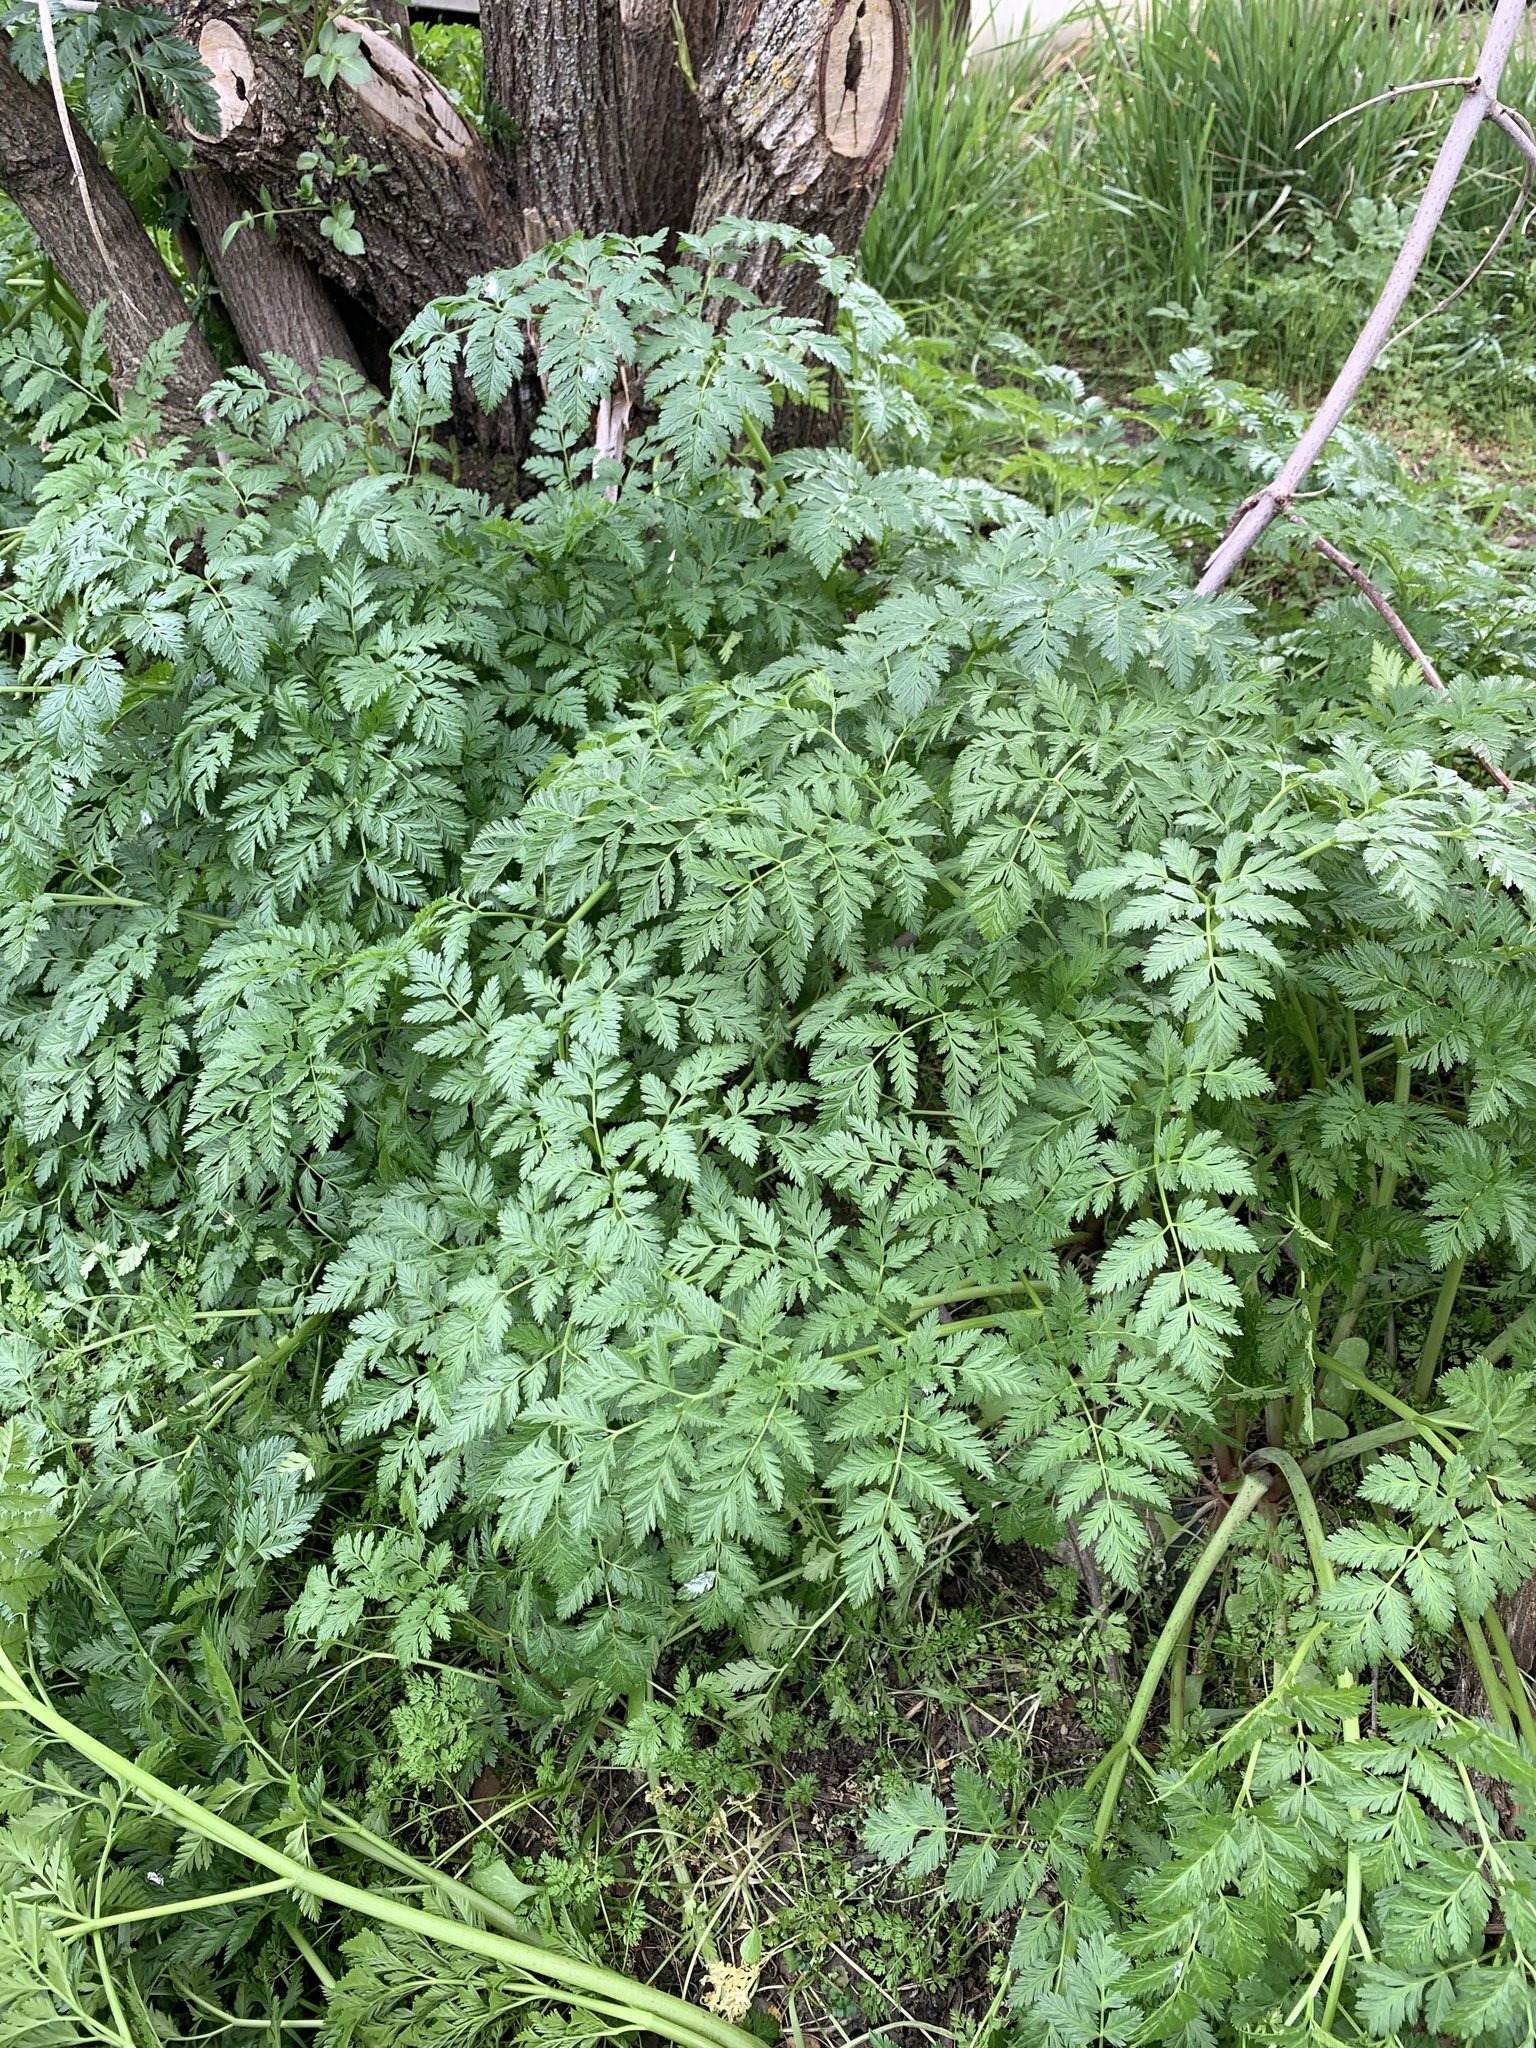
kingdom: Plantae
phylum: Tracheophyta
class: Magnoliopsida
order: Apiales
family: Apiaceae
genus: Conium
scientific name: Conium maculatum
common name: Hemlock
